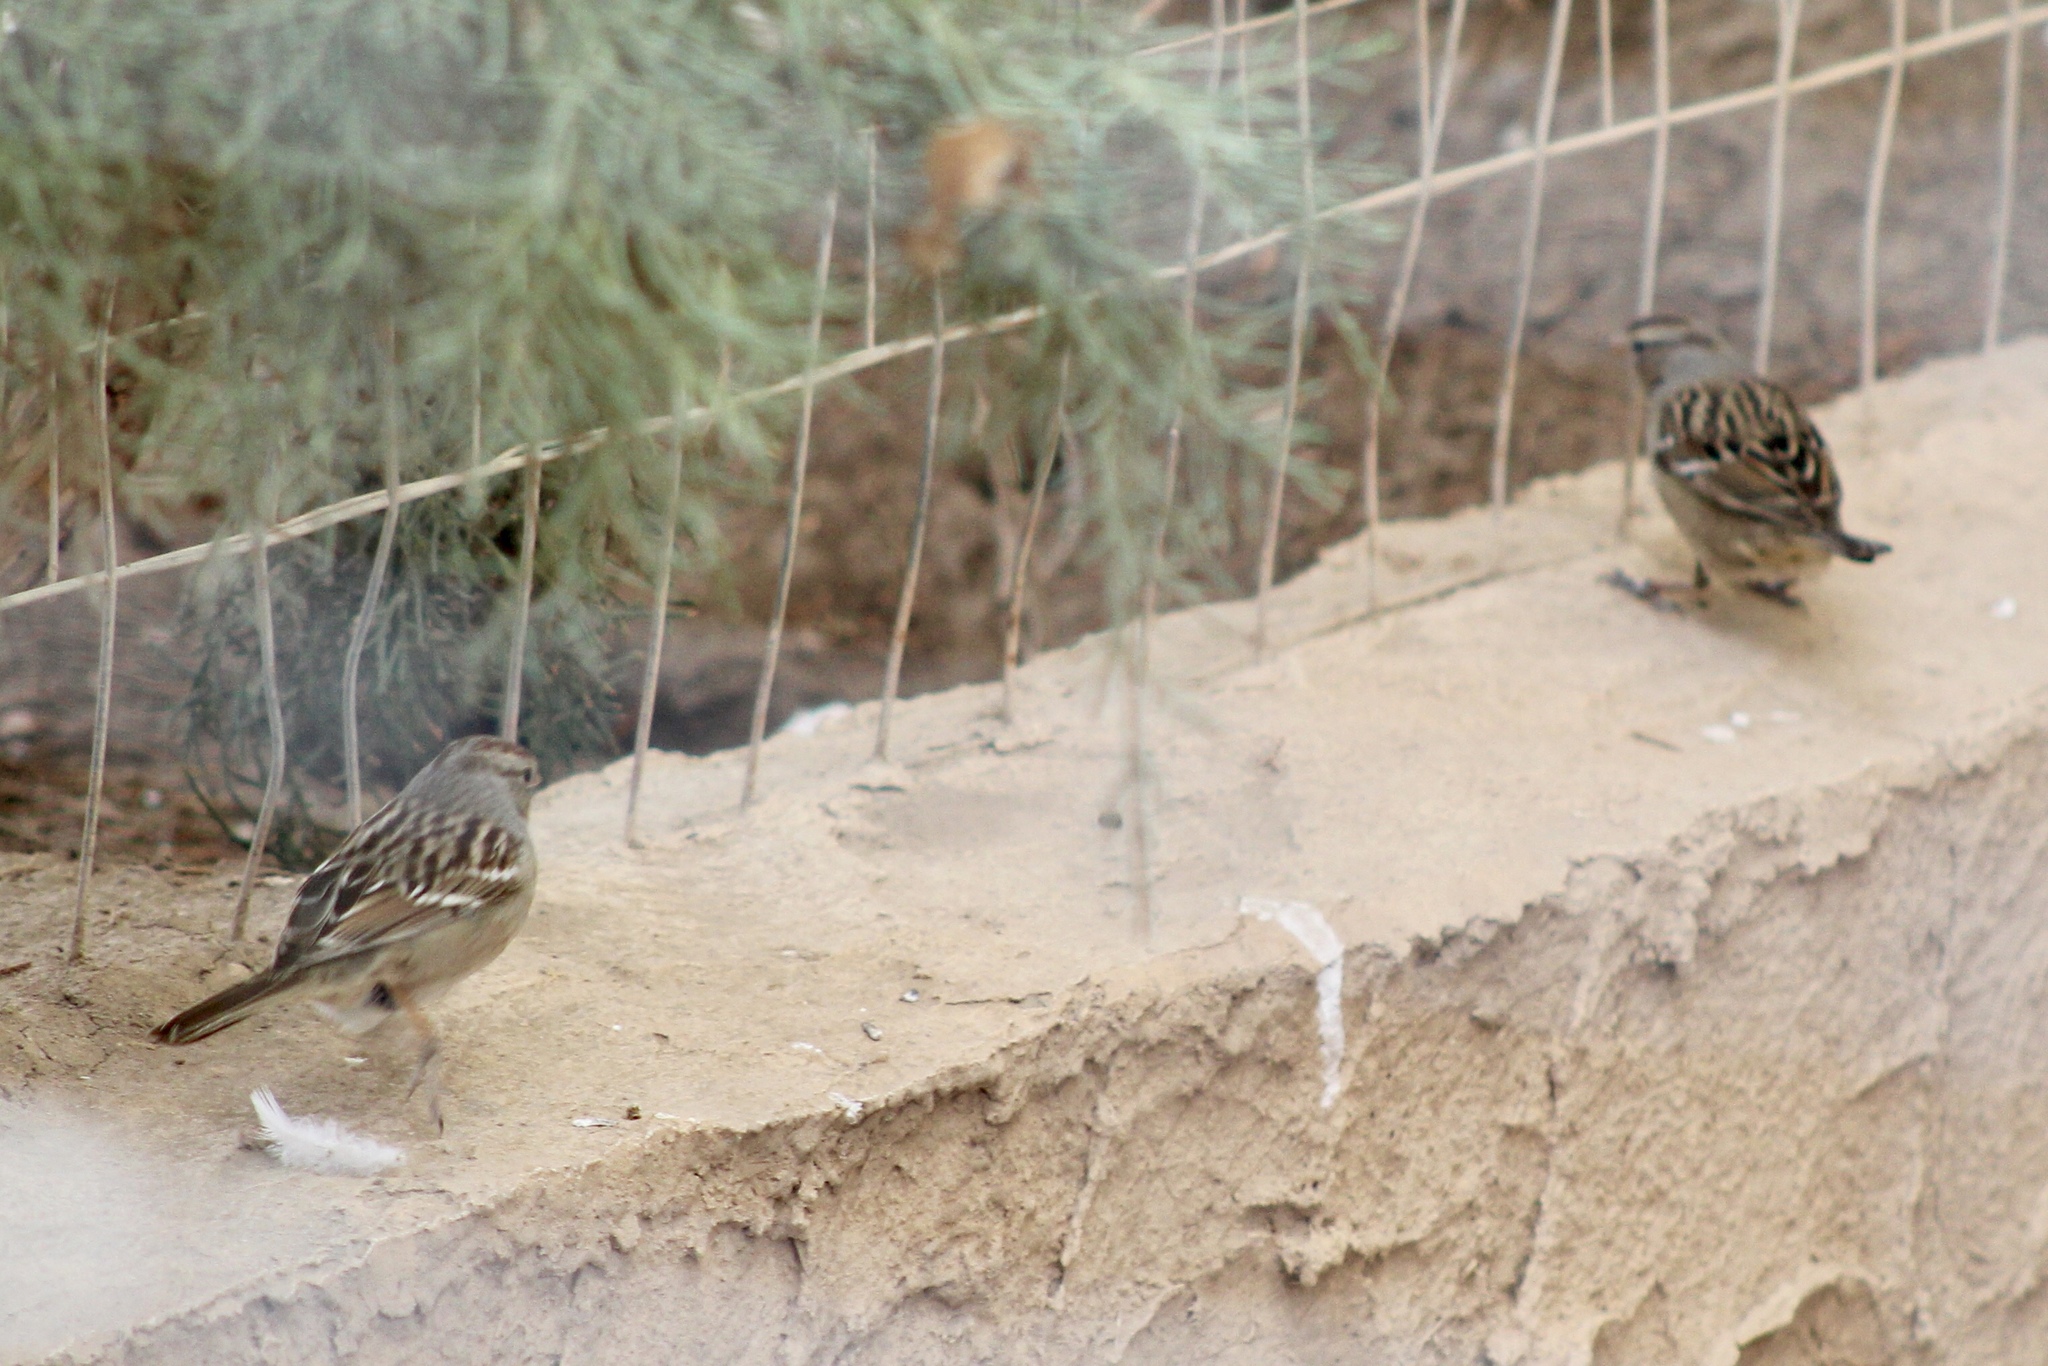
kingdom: Animalia
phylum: Chordata
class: Aves
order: Passeriformes
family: Passerellidae
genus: Zonotrichia
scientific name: Zonotrichia leucophrys
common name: White-crowned sparrow
